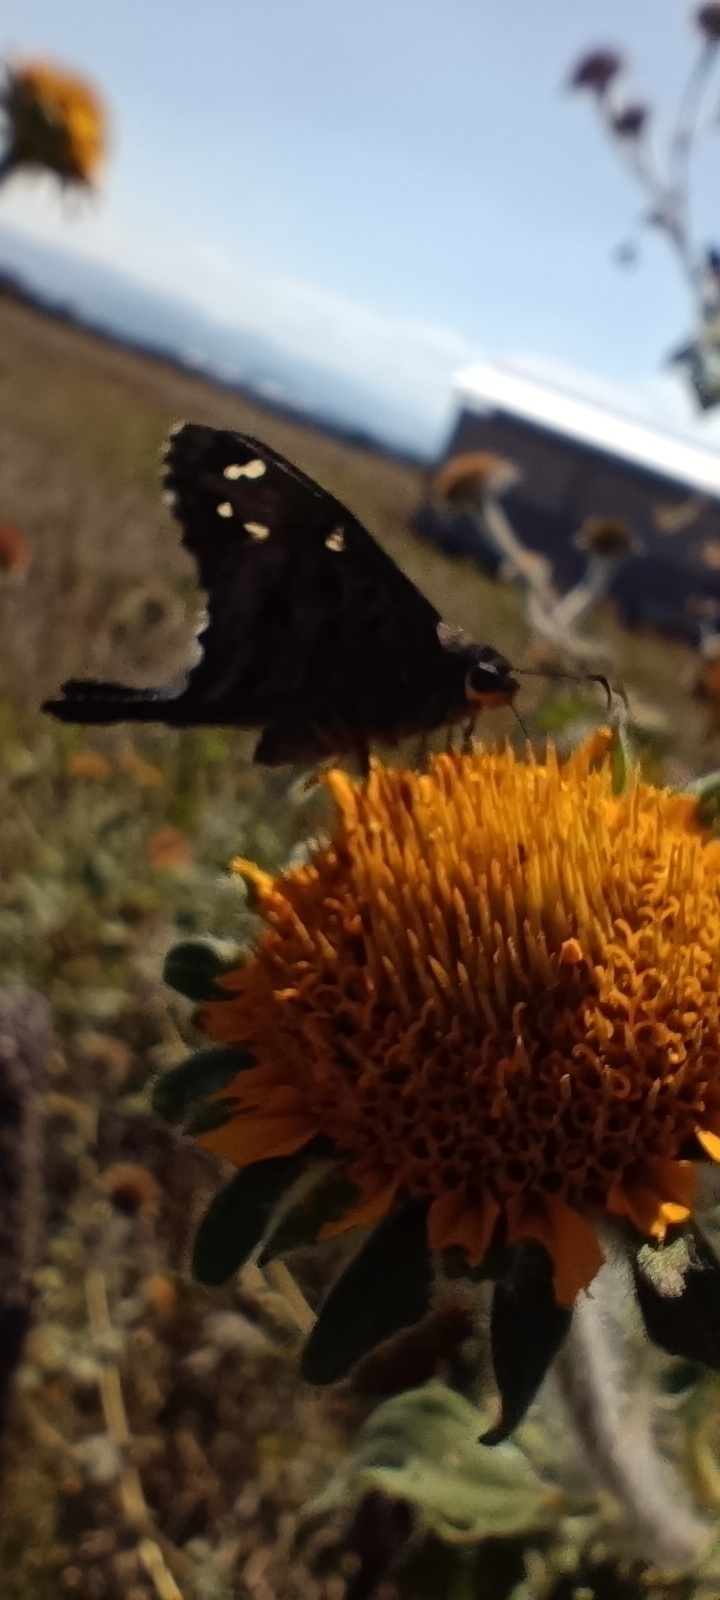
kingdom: Plantae
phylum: Tracheophyta
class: Magnoliopsida
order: Asterales
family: Asteraceae
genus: Tithonia
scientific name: Tithonia tubaeformis
